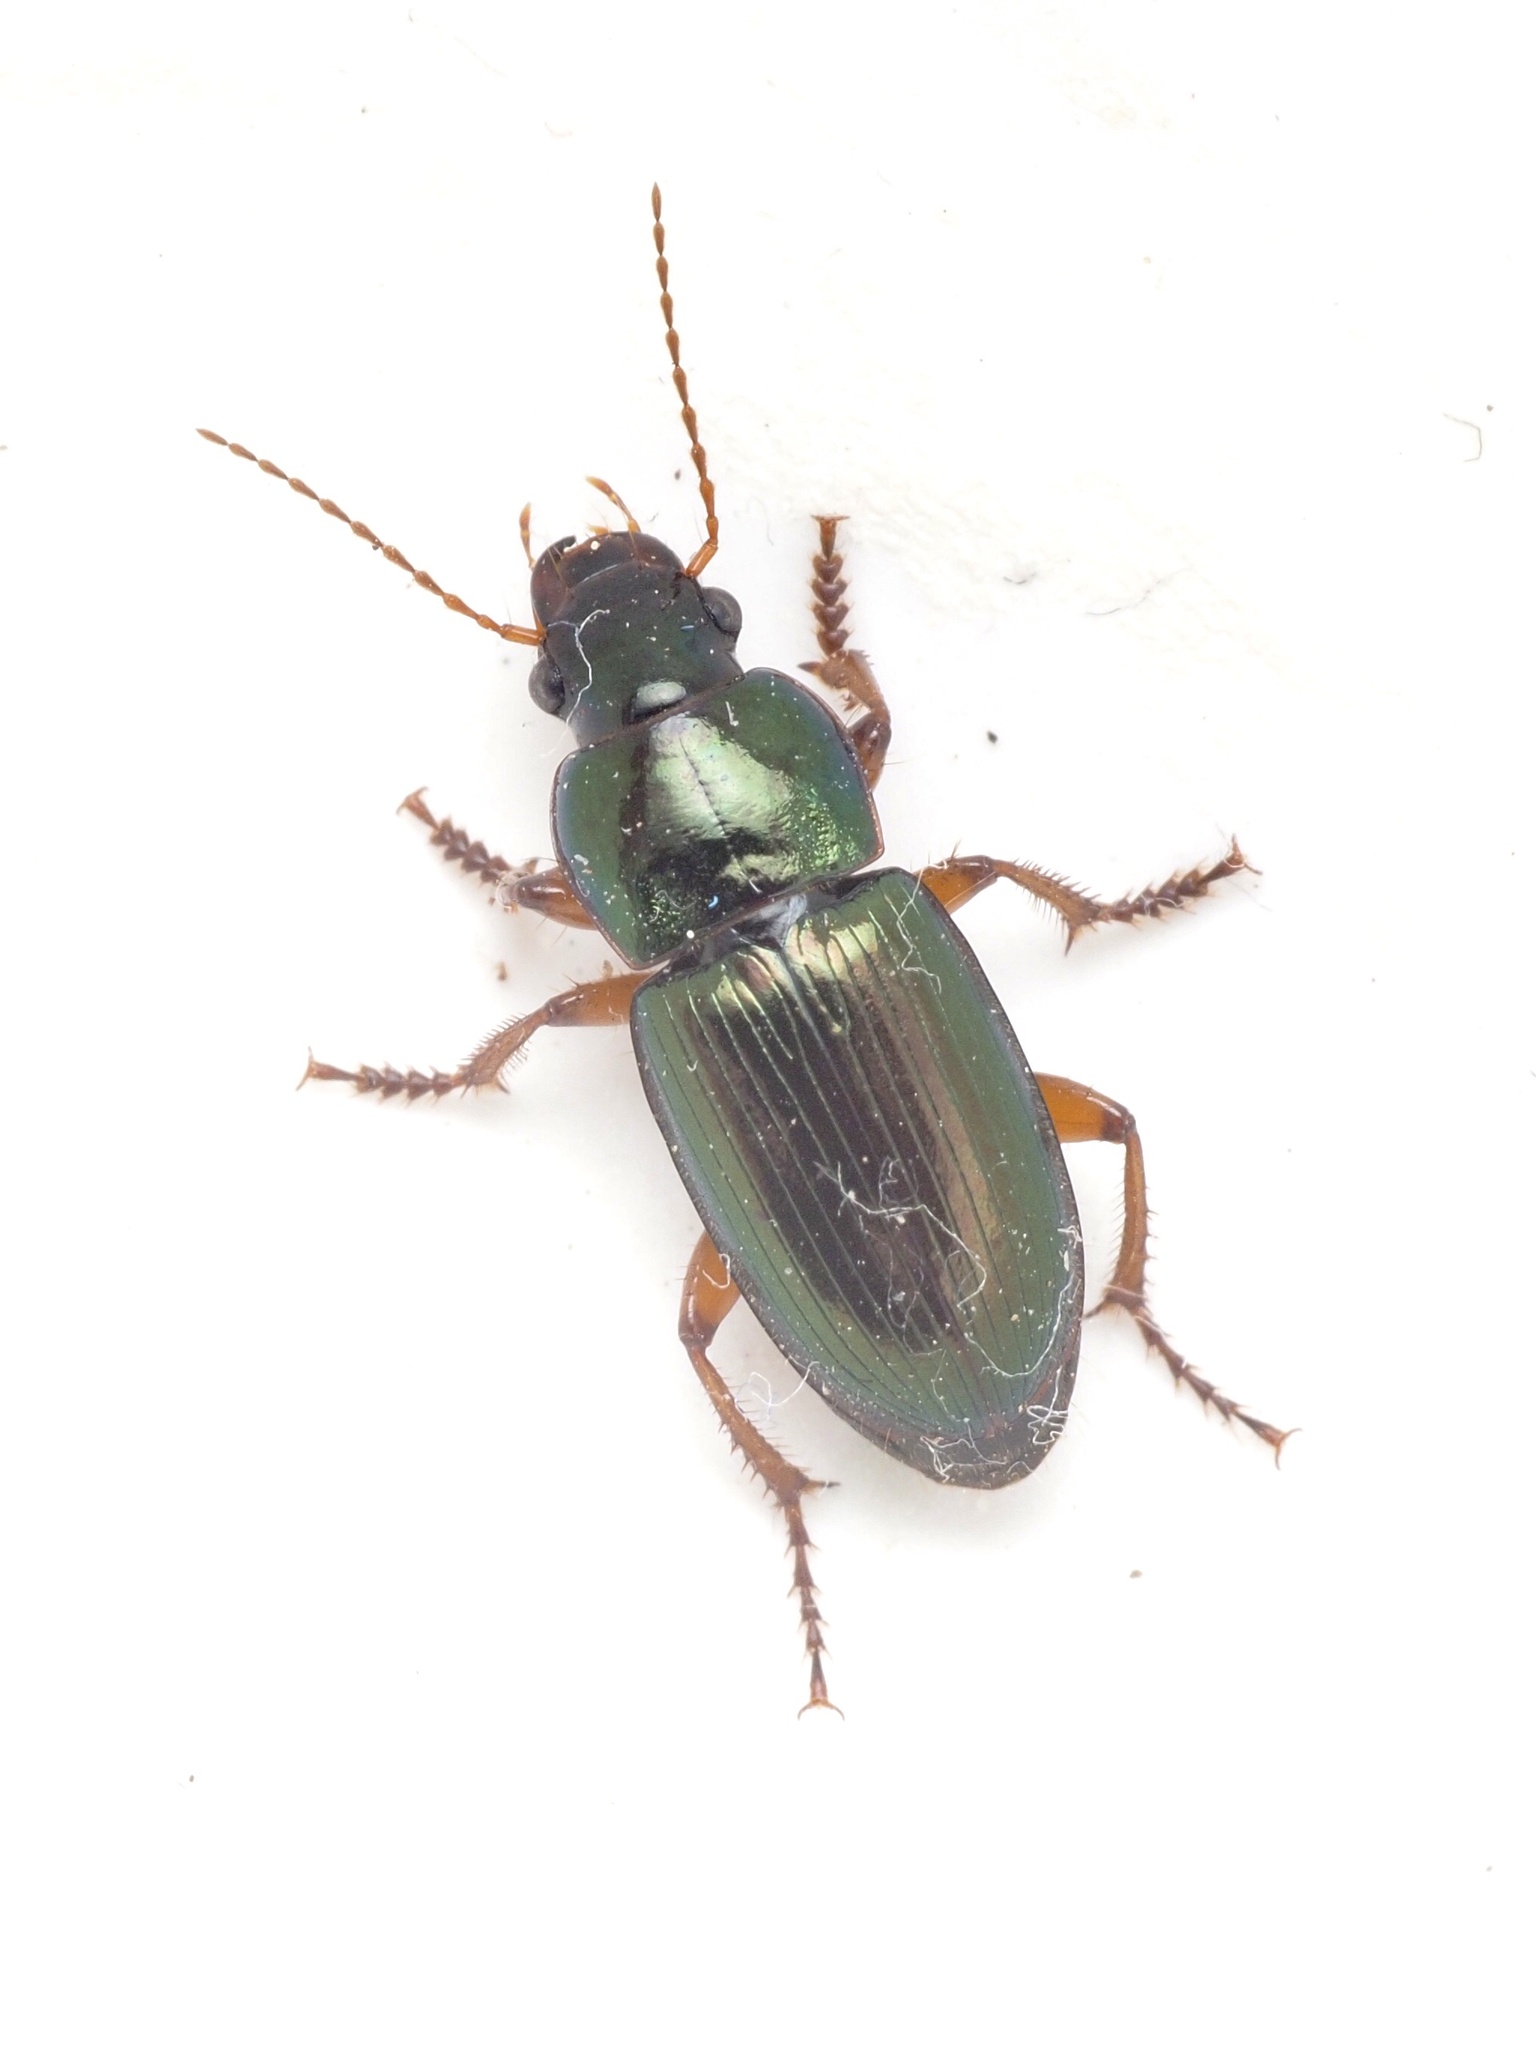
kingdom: Animalia
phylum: Arthropoda
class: Insecta
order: Coleoptera
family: Carabidae
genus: Harpalus
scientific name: Harpalus affinis
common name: Polychrome harp ground beetle
